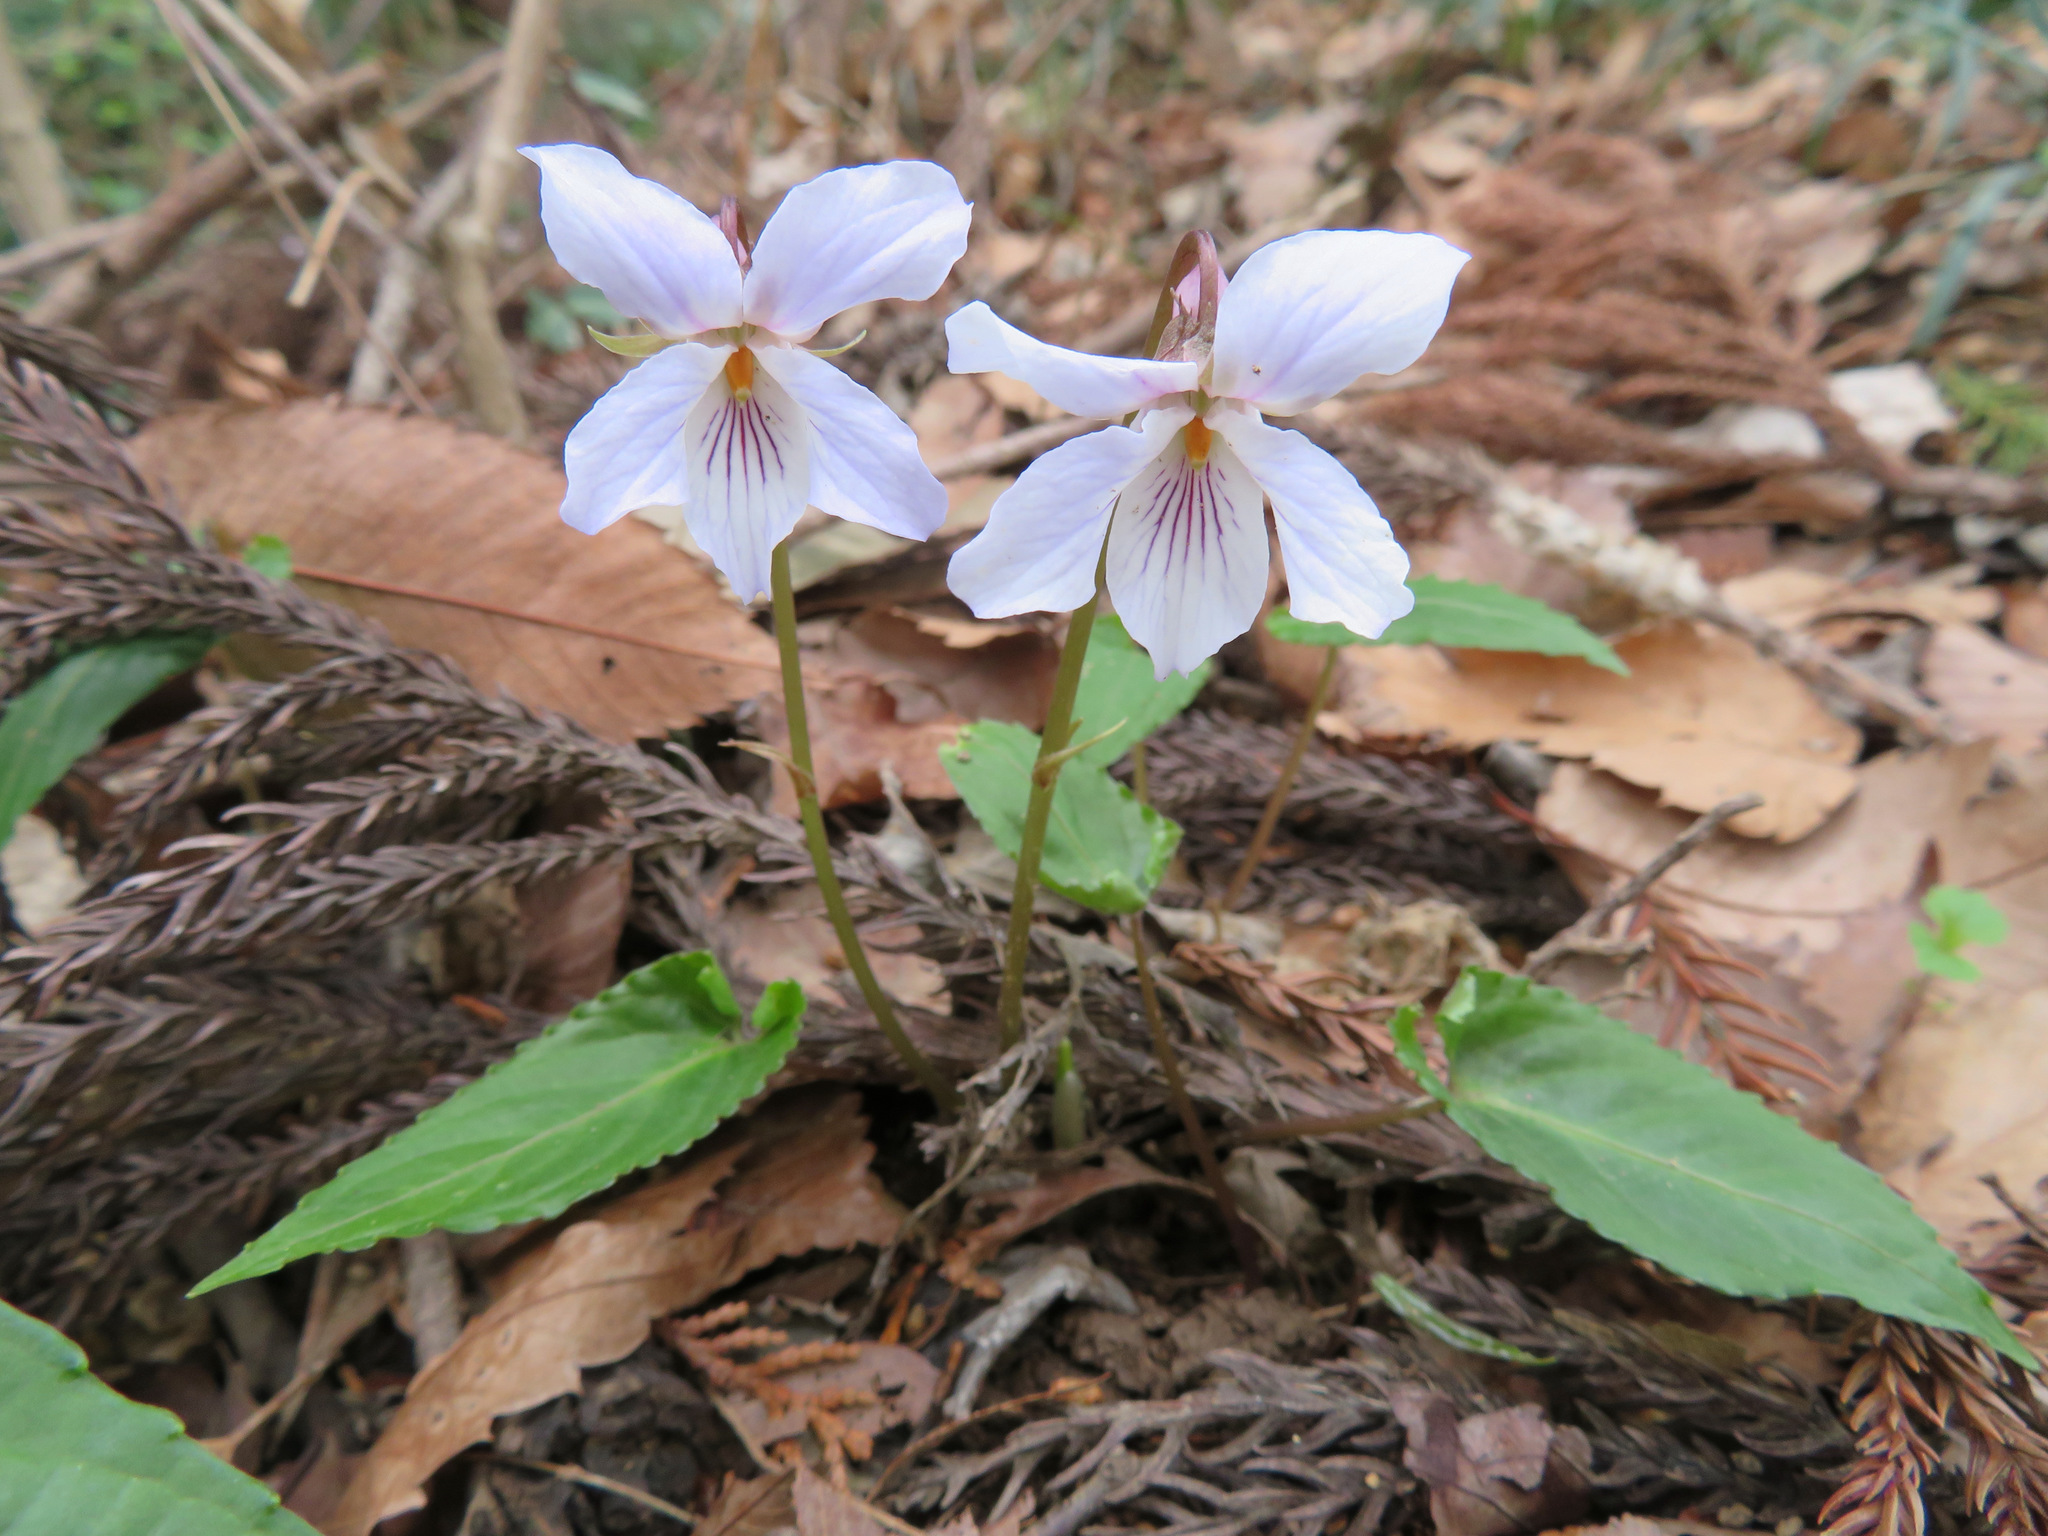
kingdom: Plantae
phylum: Tracheophyta
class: Magnoliopsida
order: Malpighiales
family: Violaceae
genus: Viola
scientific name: Viola bissetii
